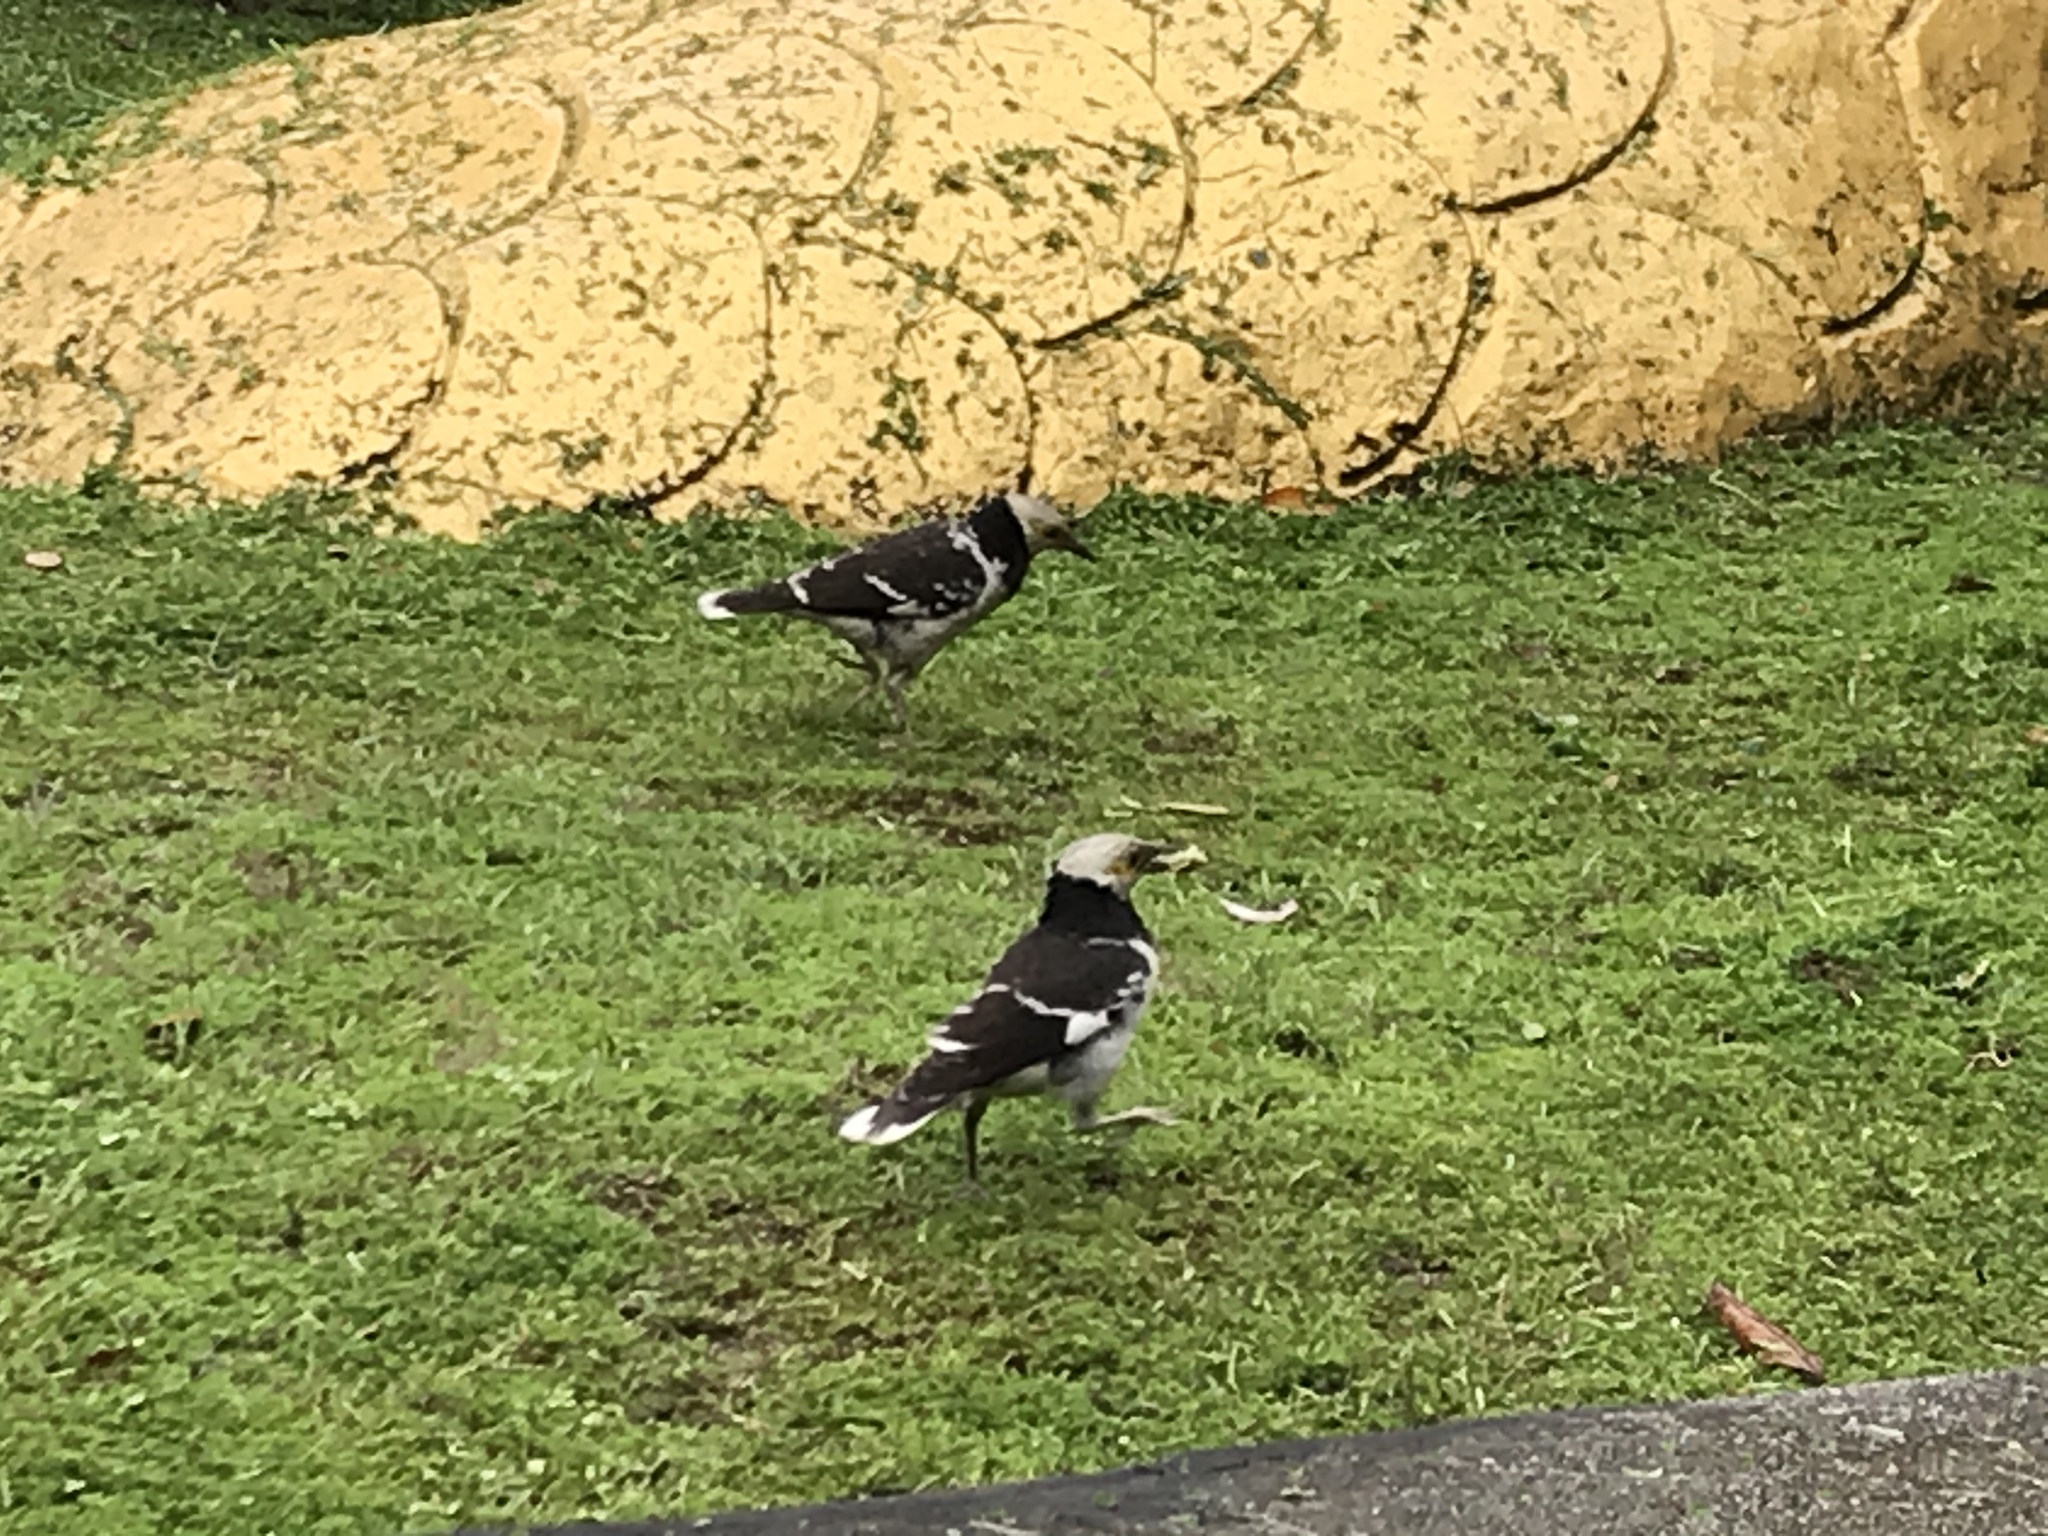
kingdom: Animalia
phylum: Chordata
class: Aves
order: Passeriformes
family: Sturnidae
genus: Gracupica
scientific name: Gracupica nigricollis
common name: Black-collared starling
